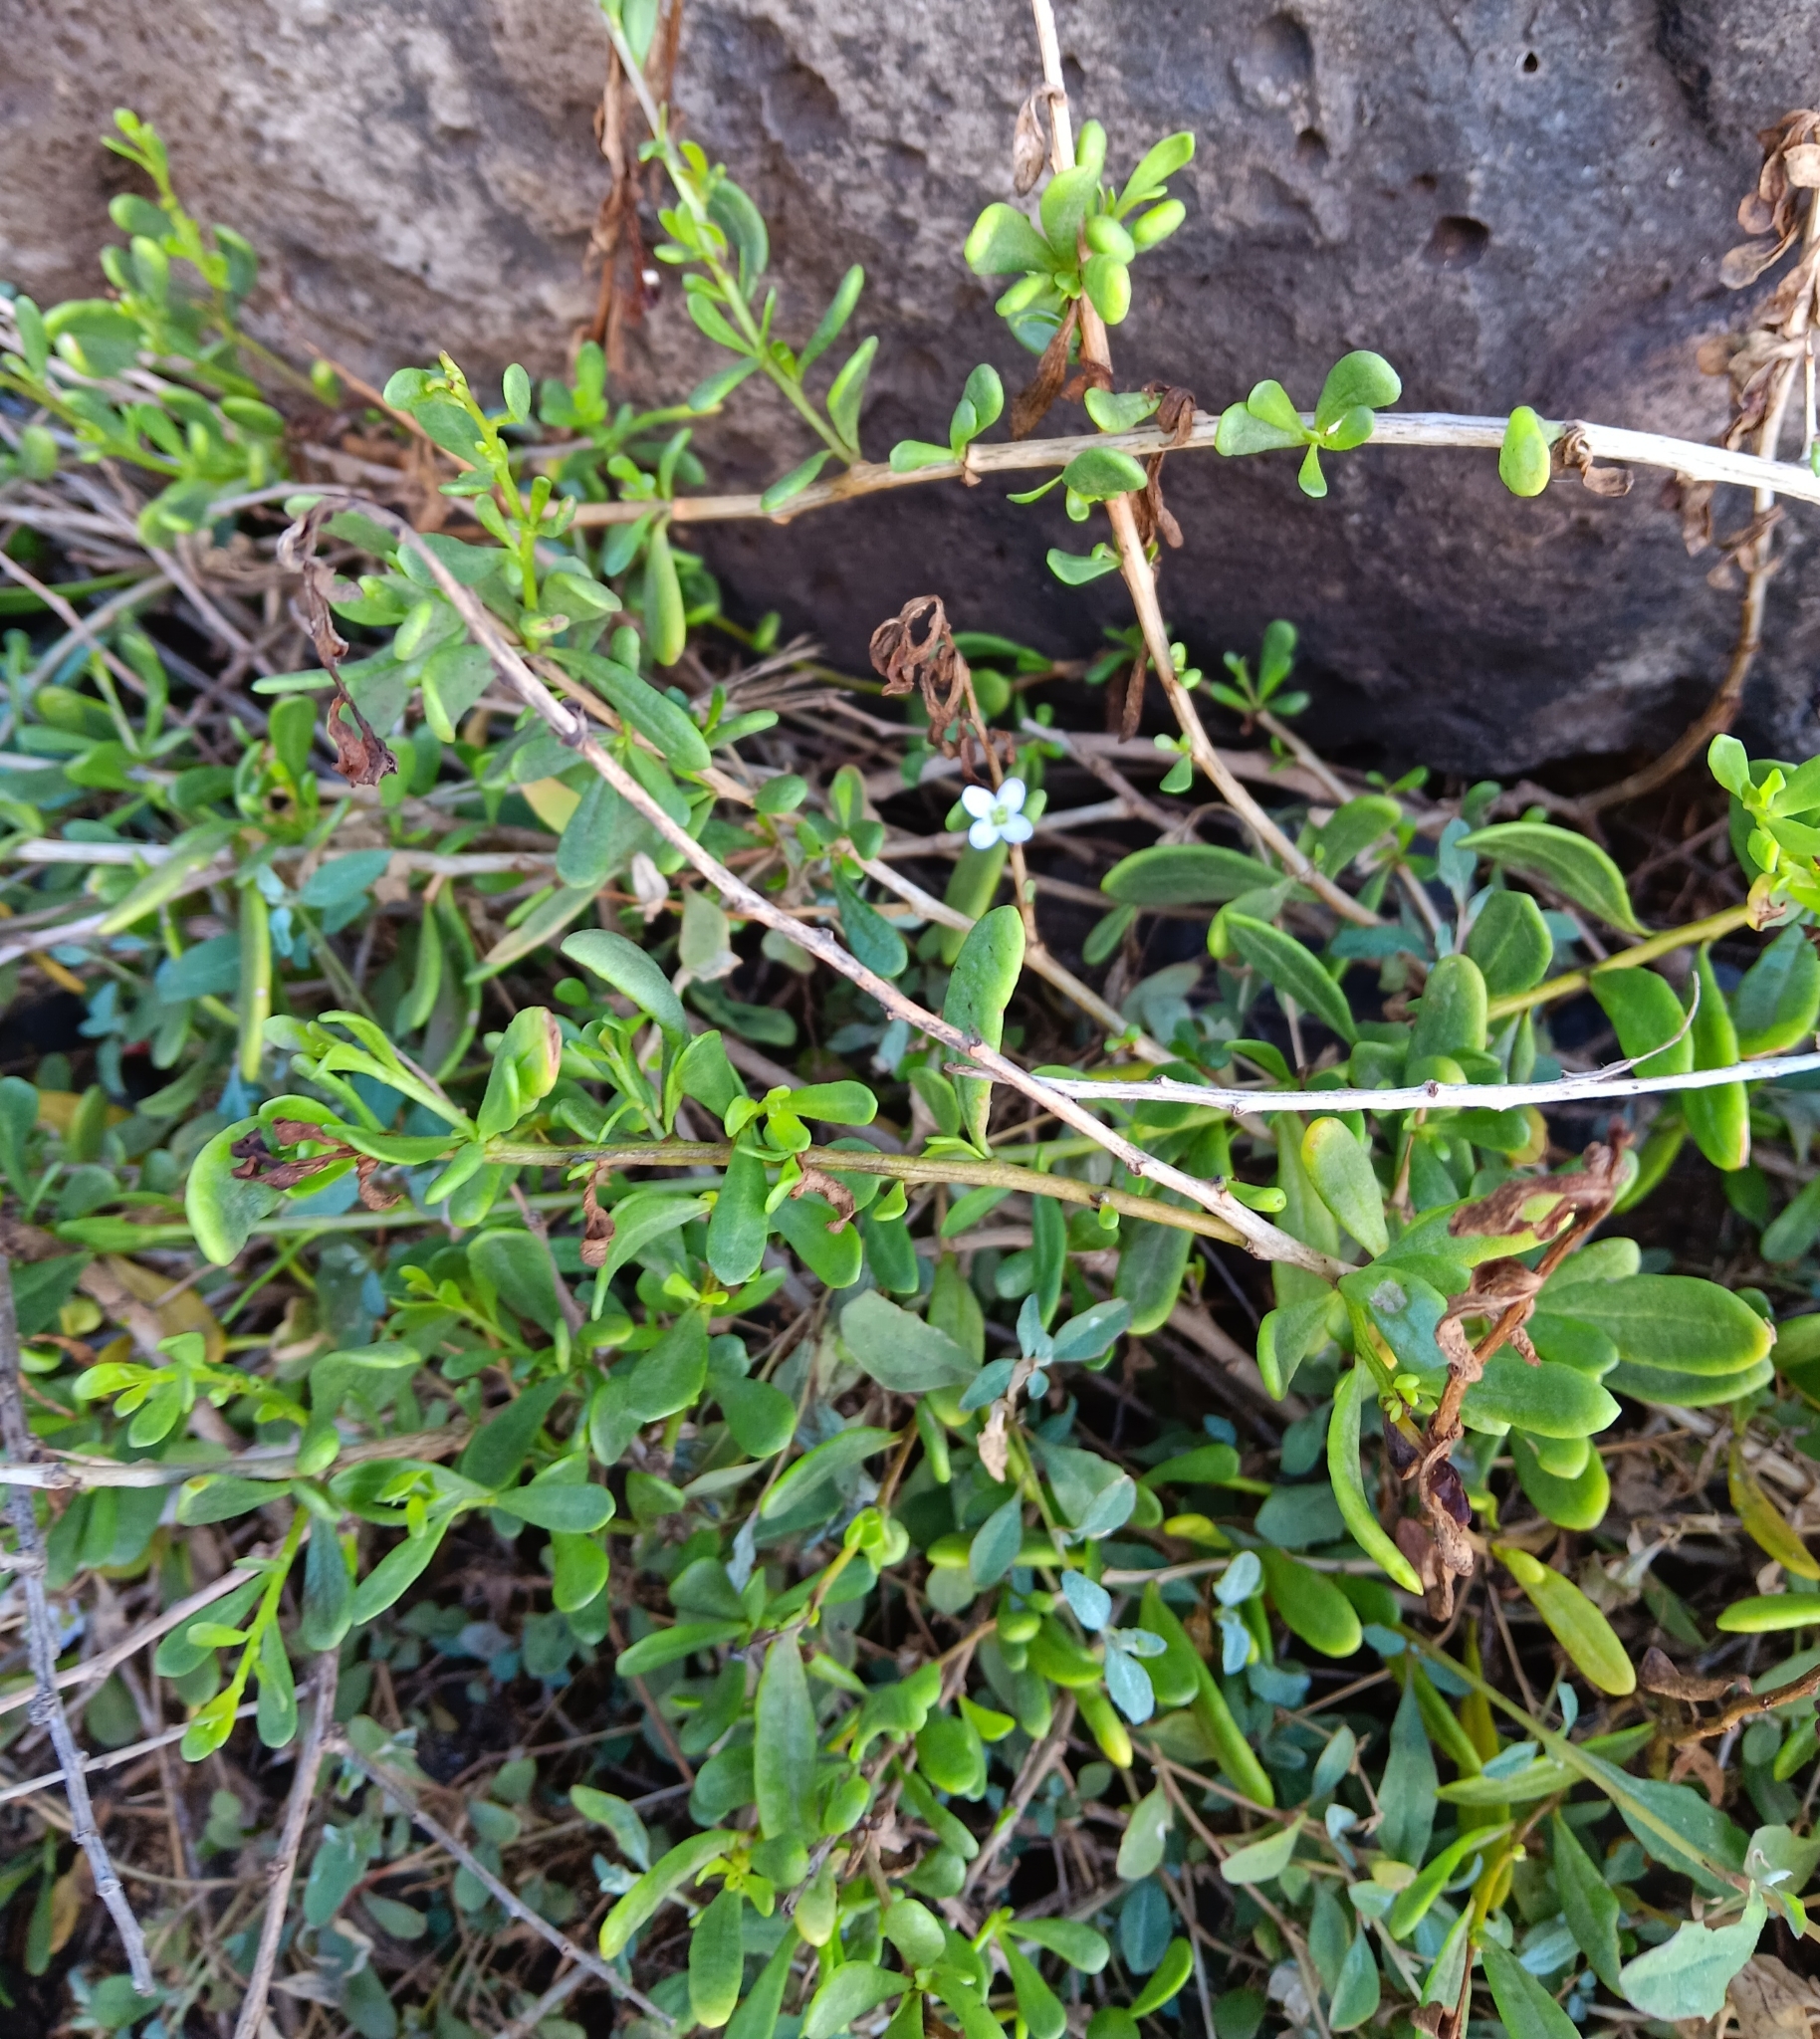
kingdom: Plantae
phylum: Tracheophyta
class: Magnoliopsida
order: Solanales
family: Solanaceae
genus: Lycium
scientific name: Lycium sandwicense
